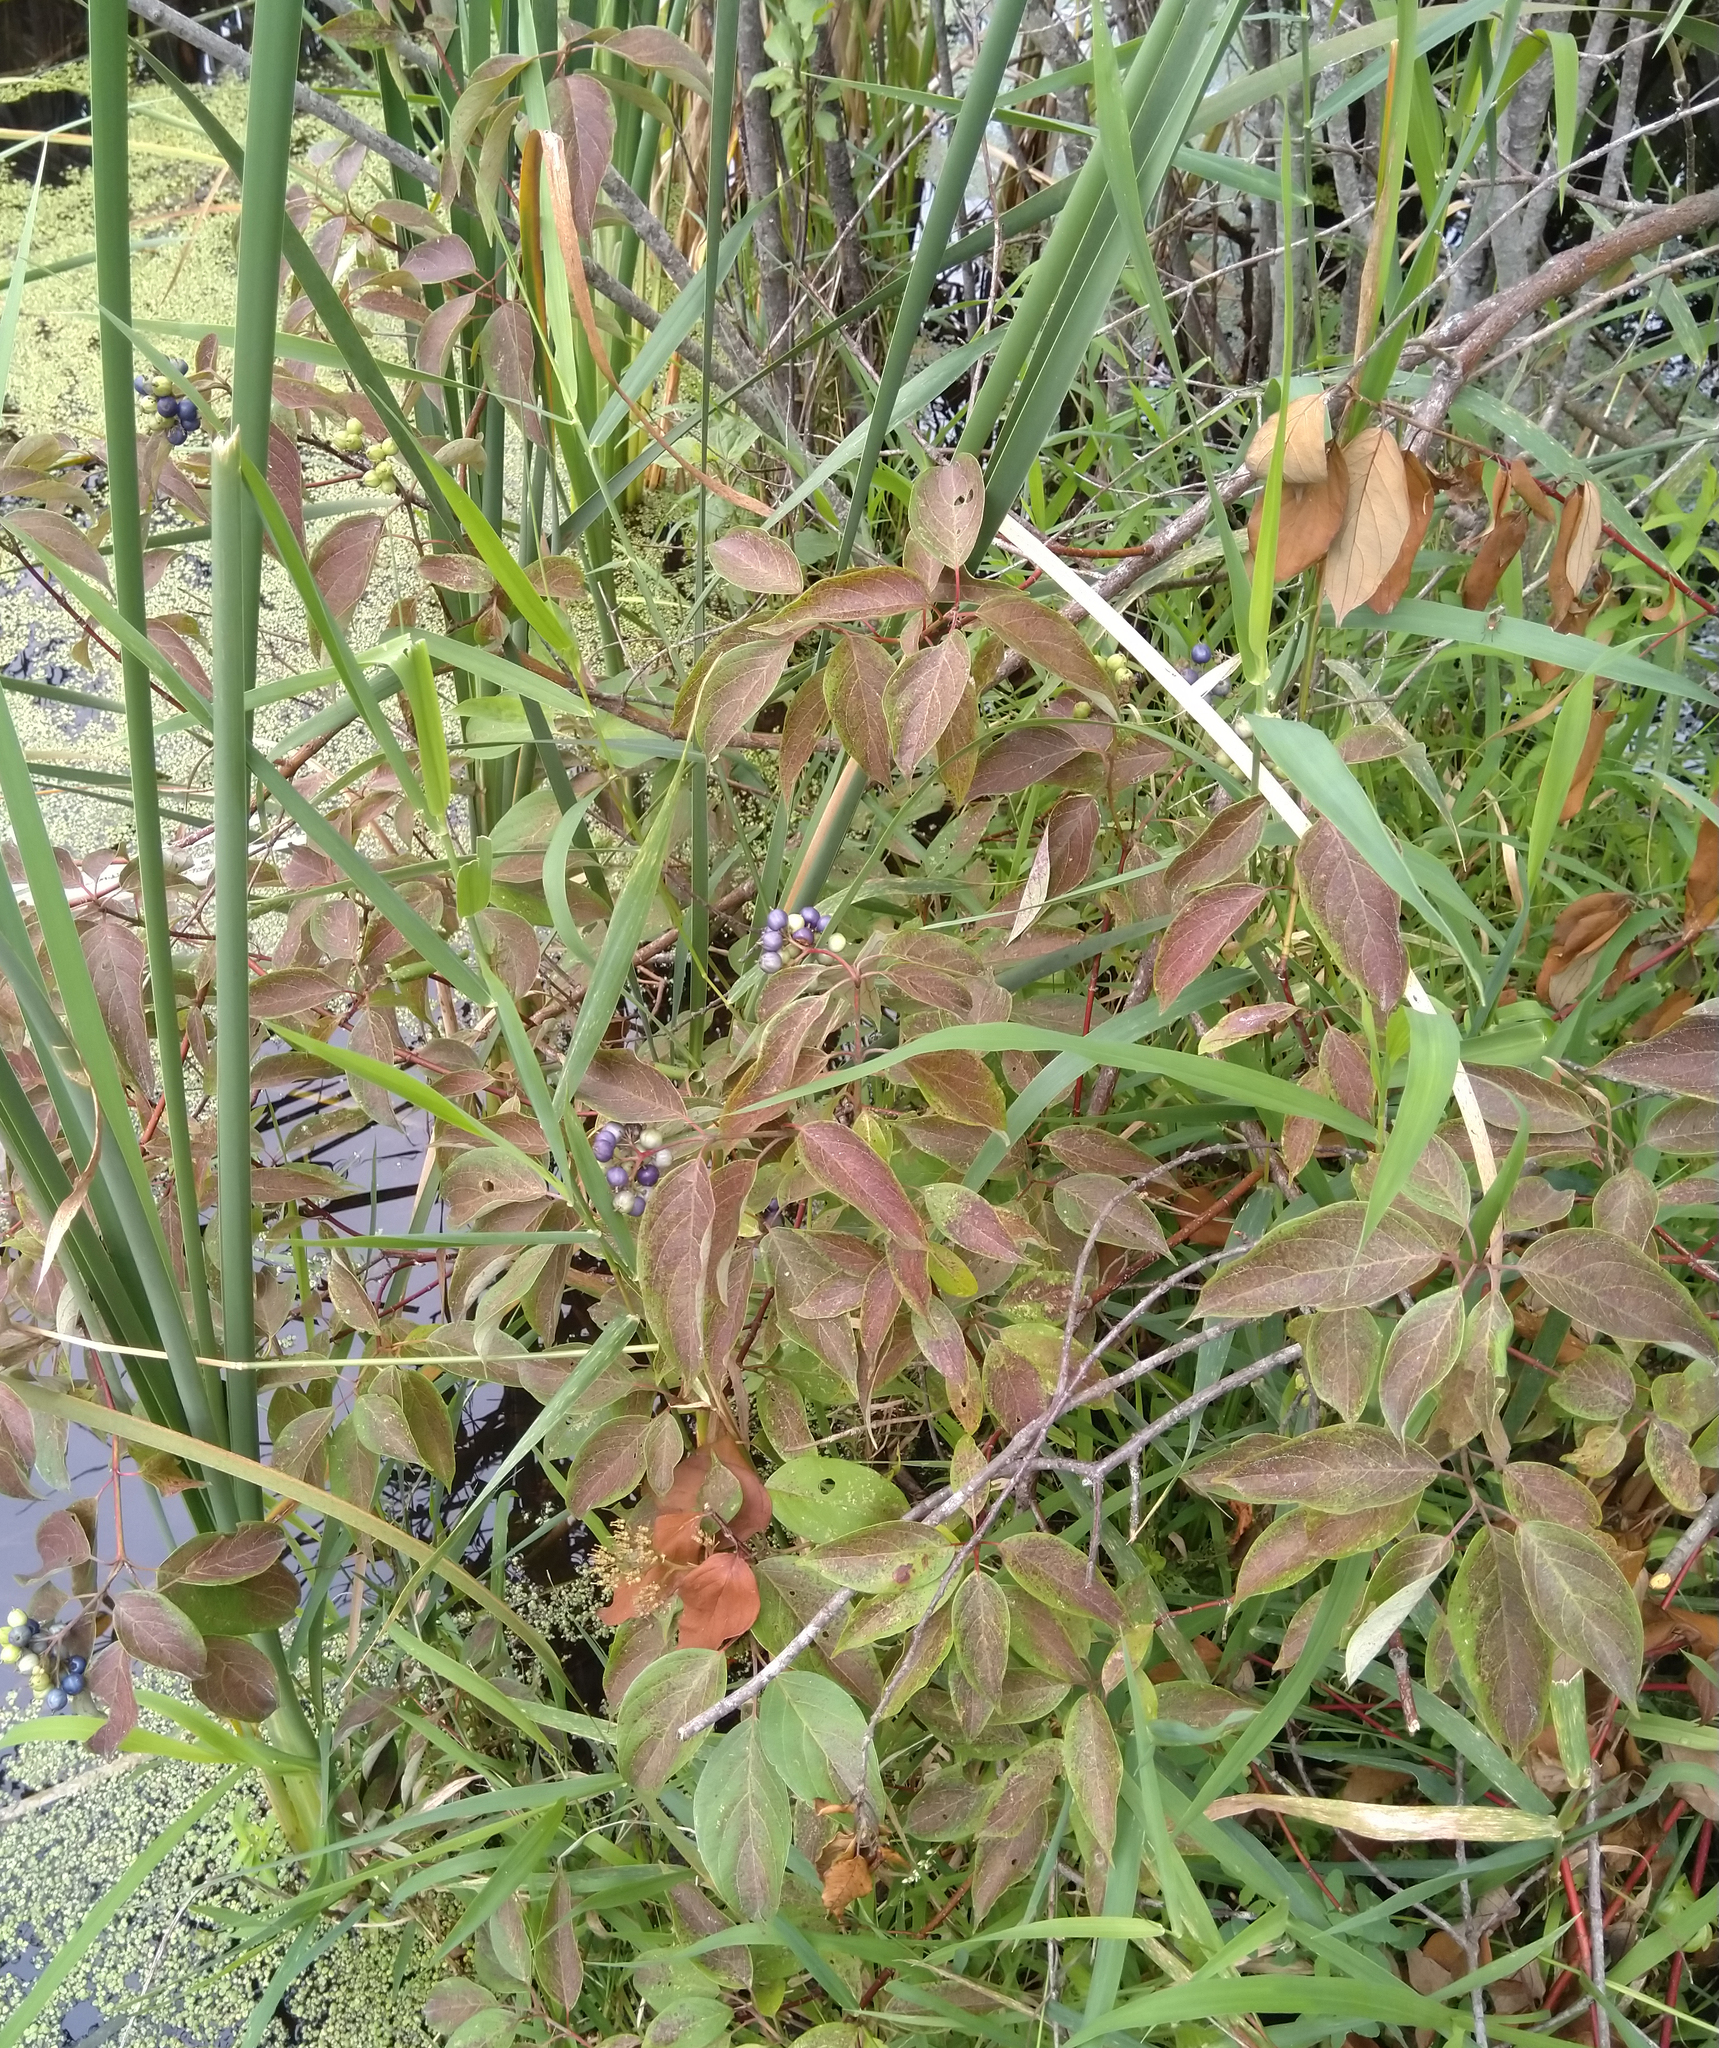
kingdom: Plantae
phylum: Tracheophyta
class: Magnoliopsida
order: Cornales
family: Cornaceae
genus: Cornus
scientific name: Cornus amomum
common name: Silky dogwood
